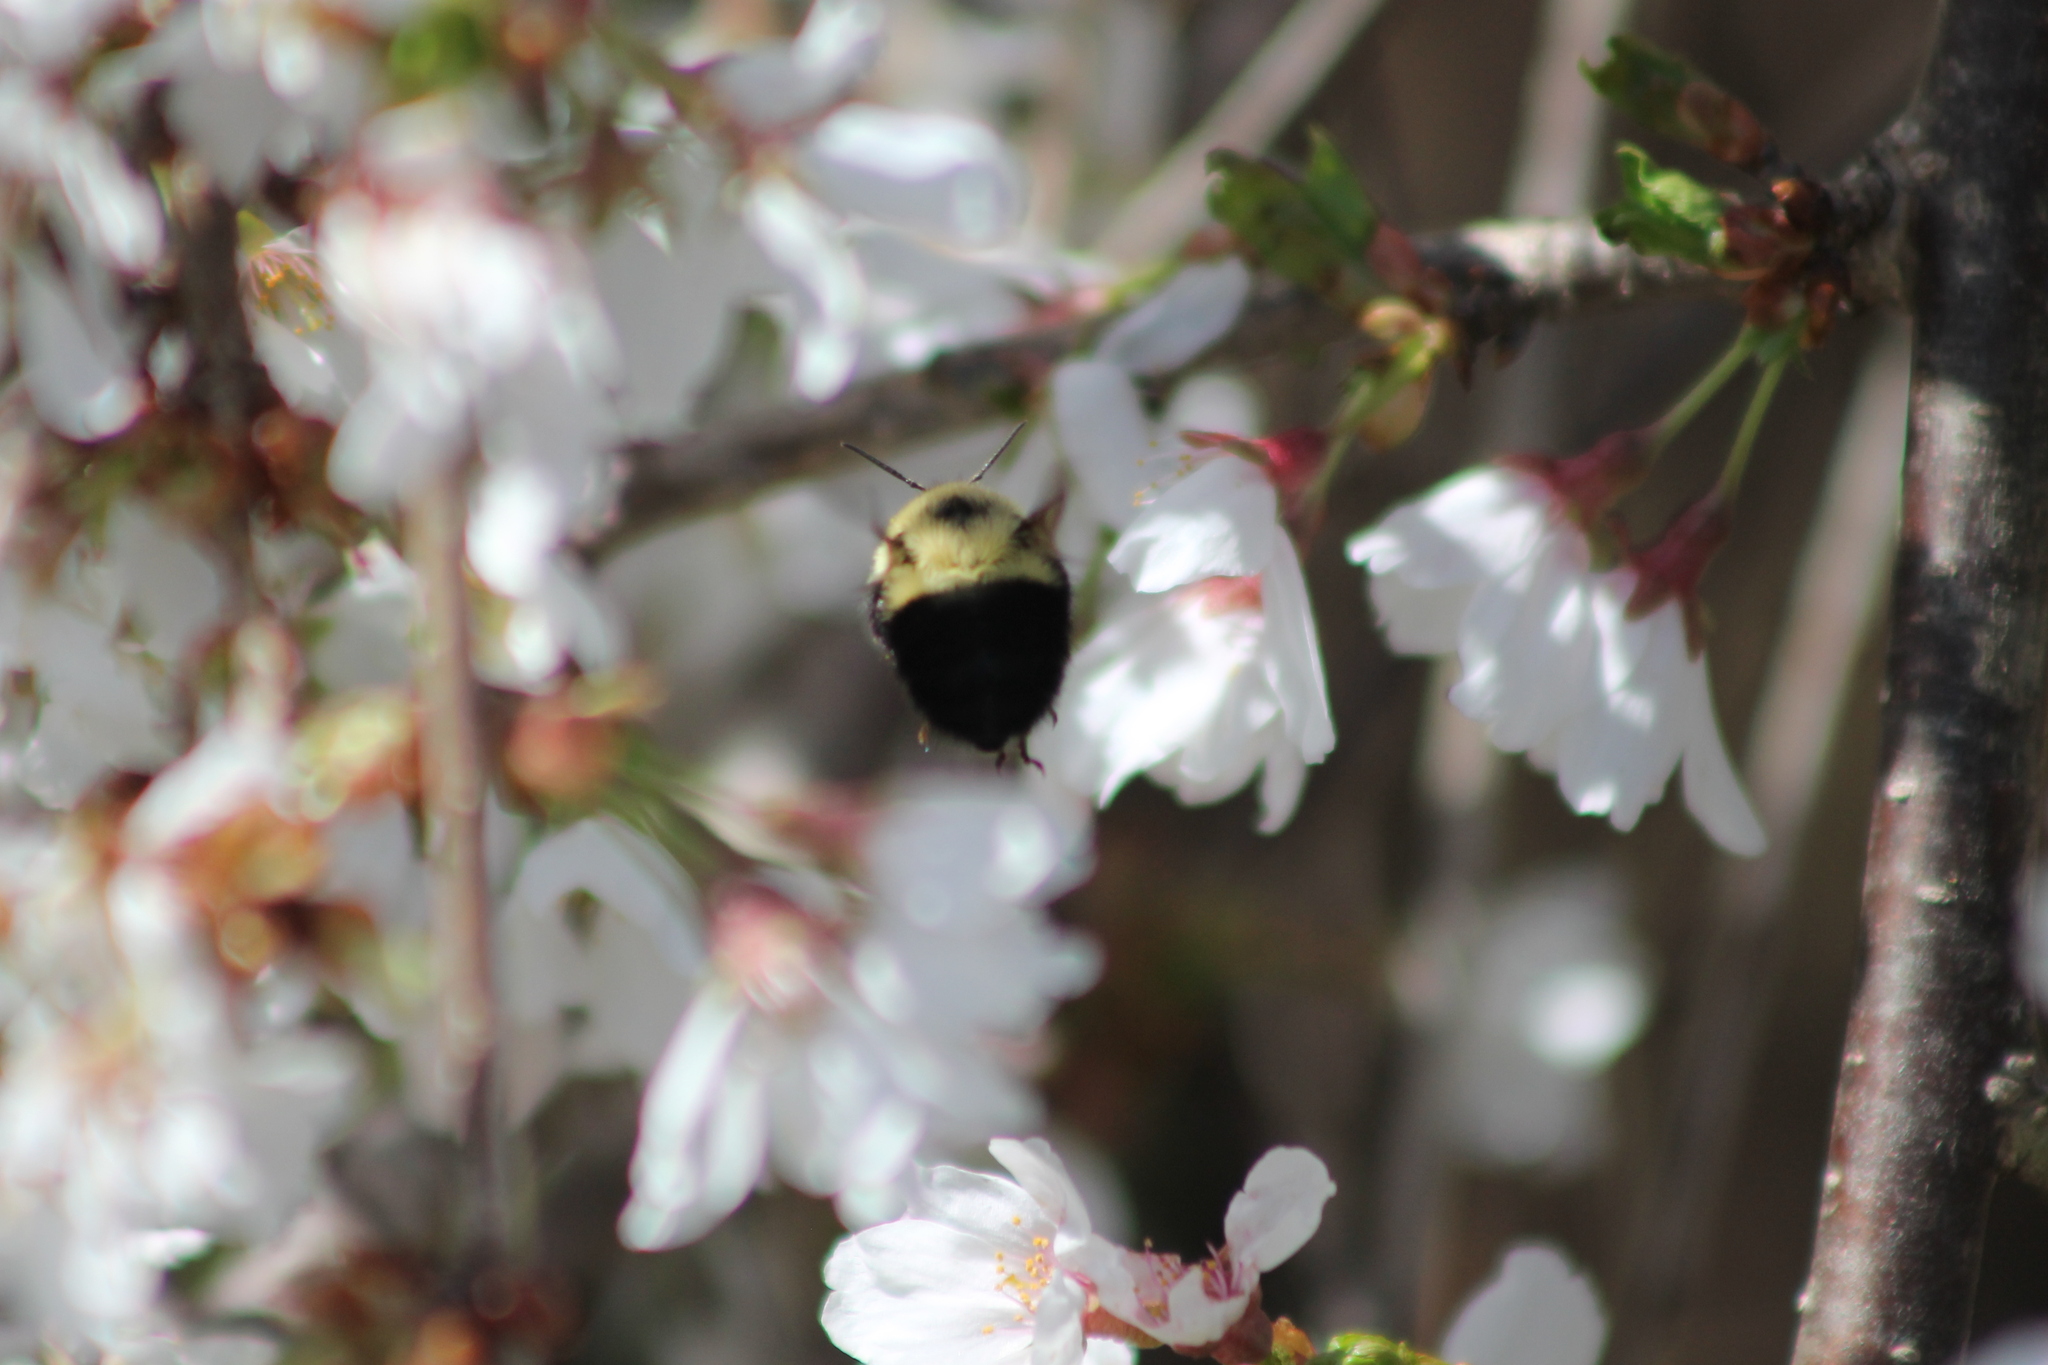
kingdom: Animalia
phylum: Arthropoda
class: Insecta
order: Hymenoptera
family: Apidae
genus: Bombus
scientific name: Bombus bimaculatus
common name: Two-spotted bumble bee
